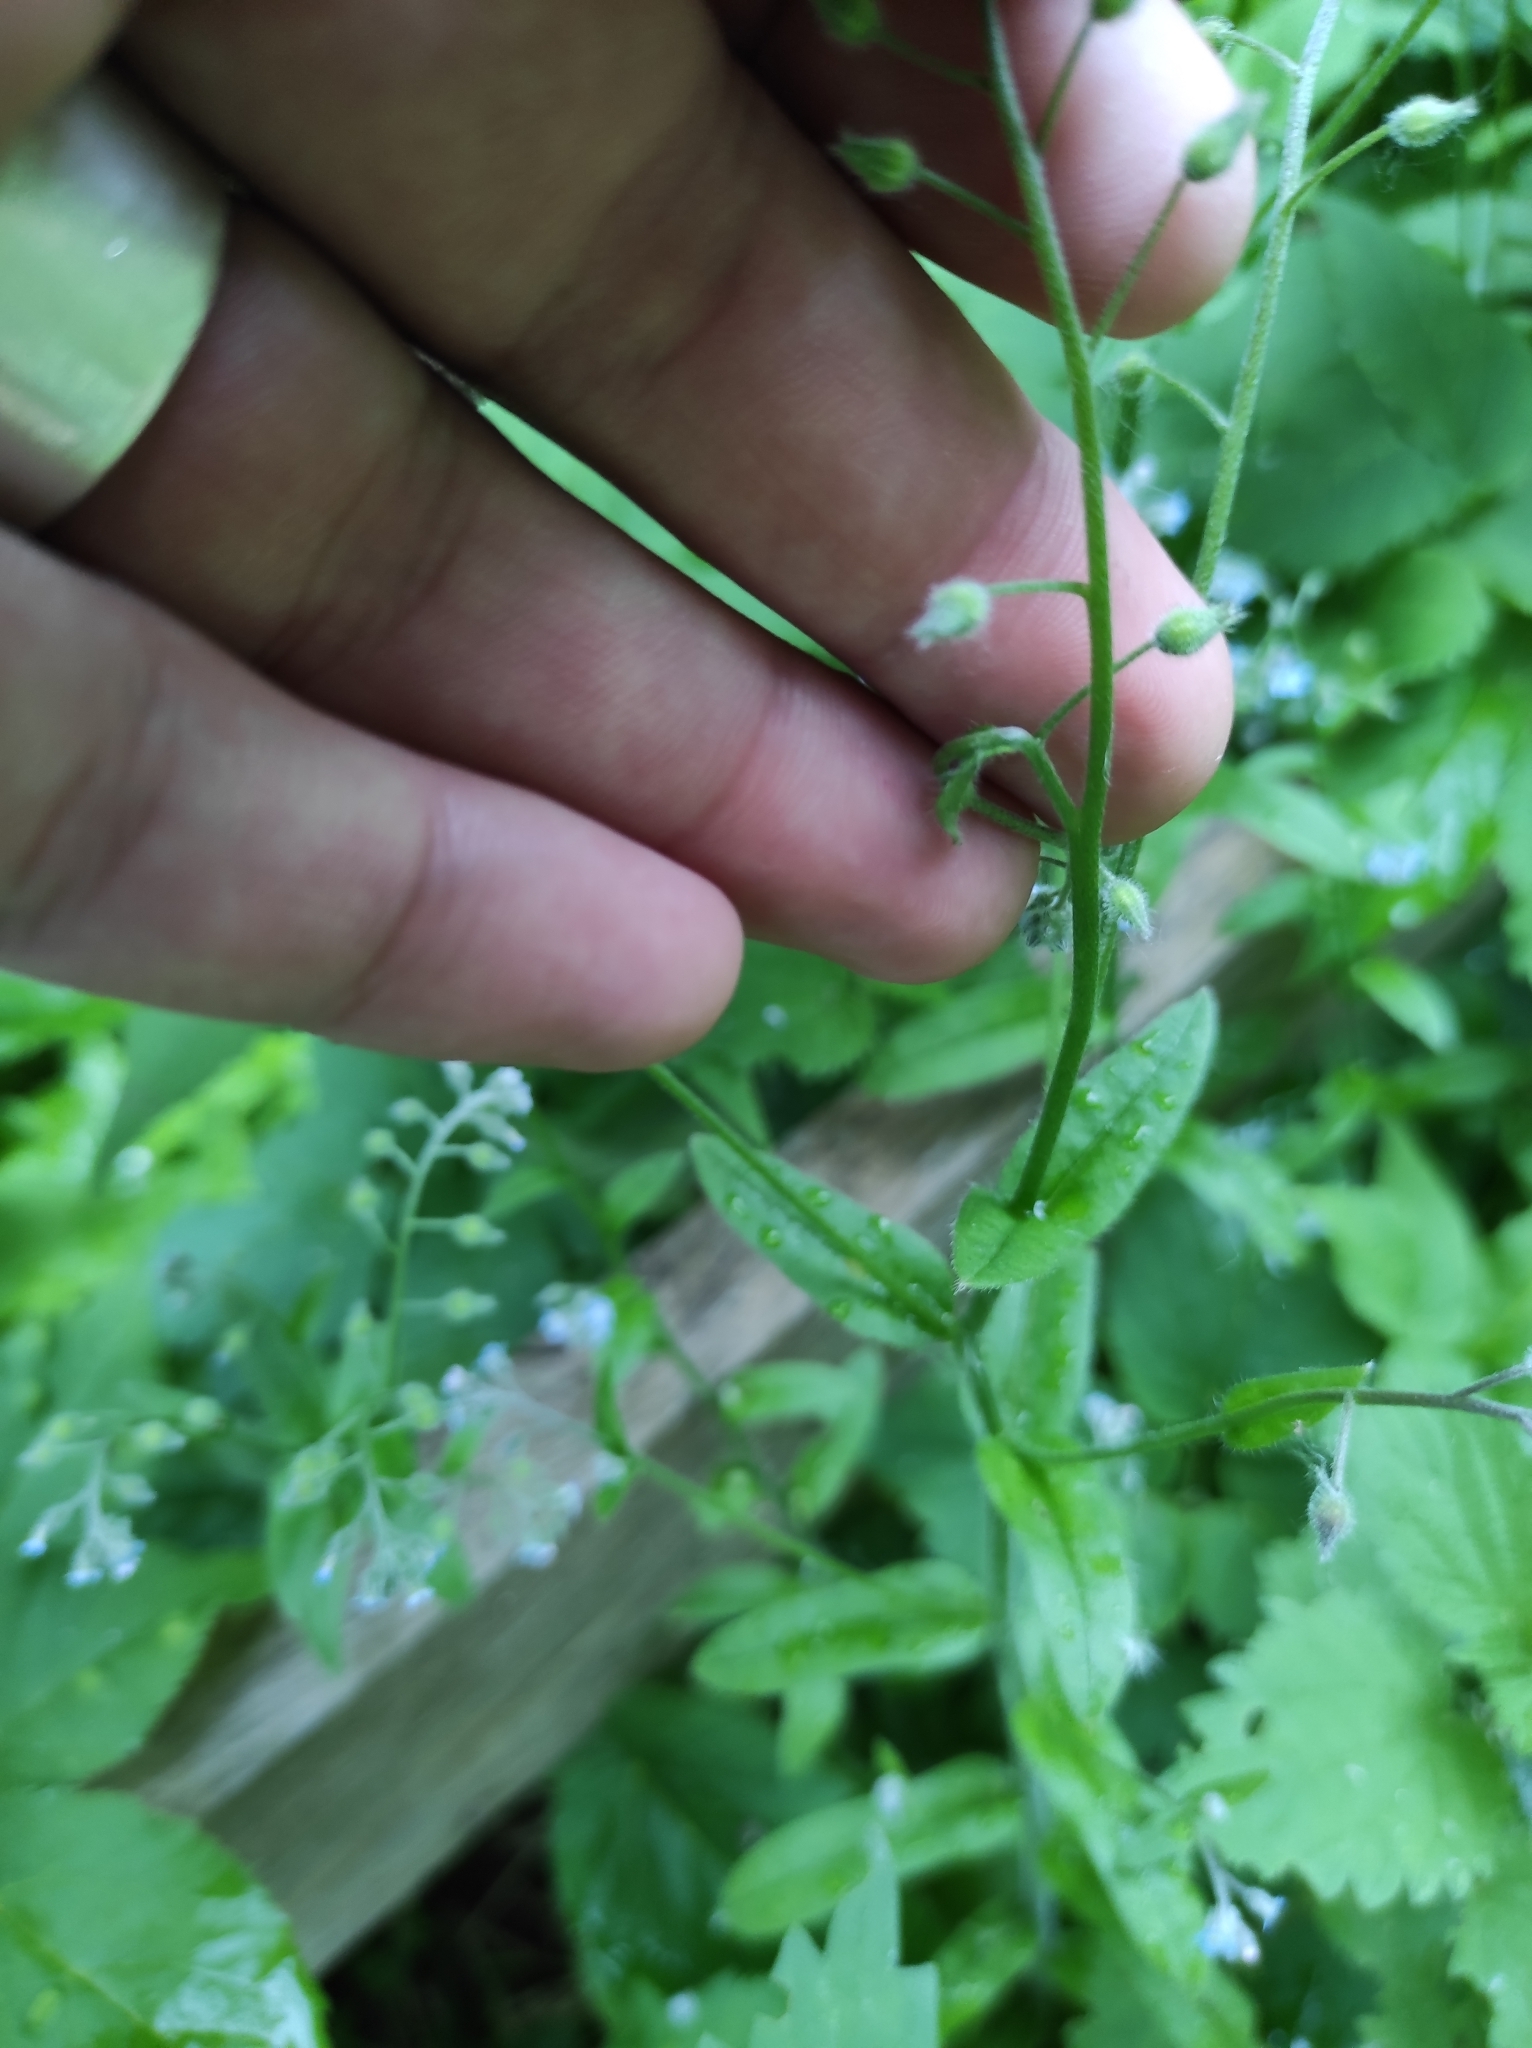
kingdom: Plantae
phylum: Tracheophyta
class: Magnoliopsida
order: Boraginales
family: Boraginaceae
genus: Myosotis
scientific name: Myosotis arvensis
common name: Field forget-me-not
